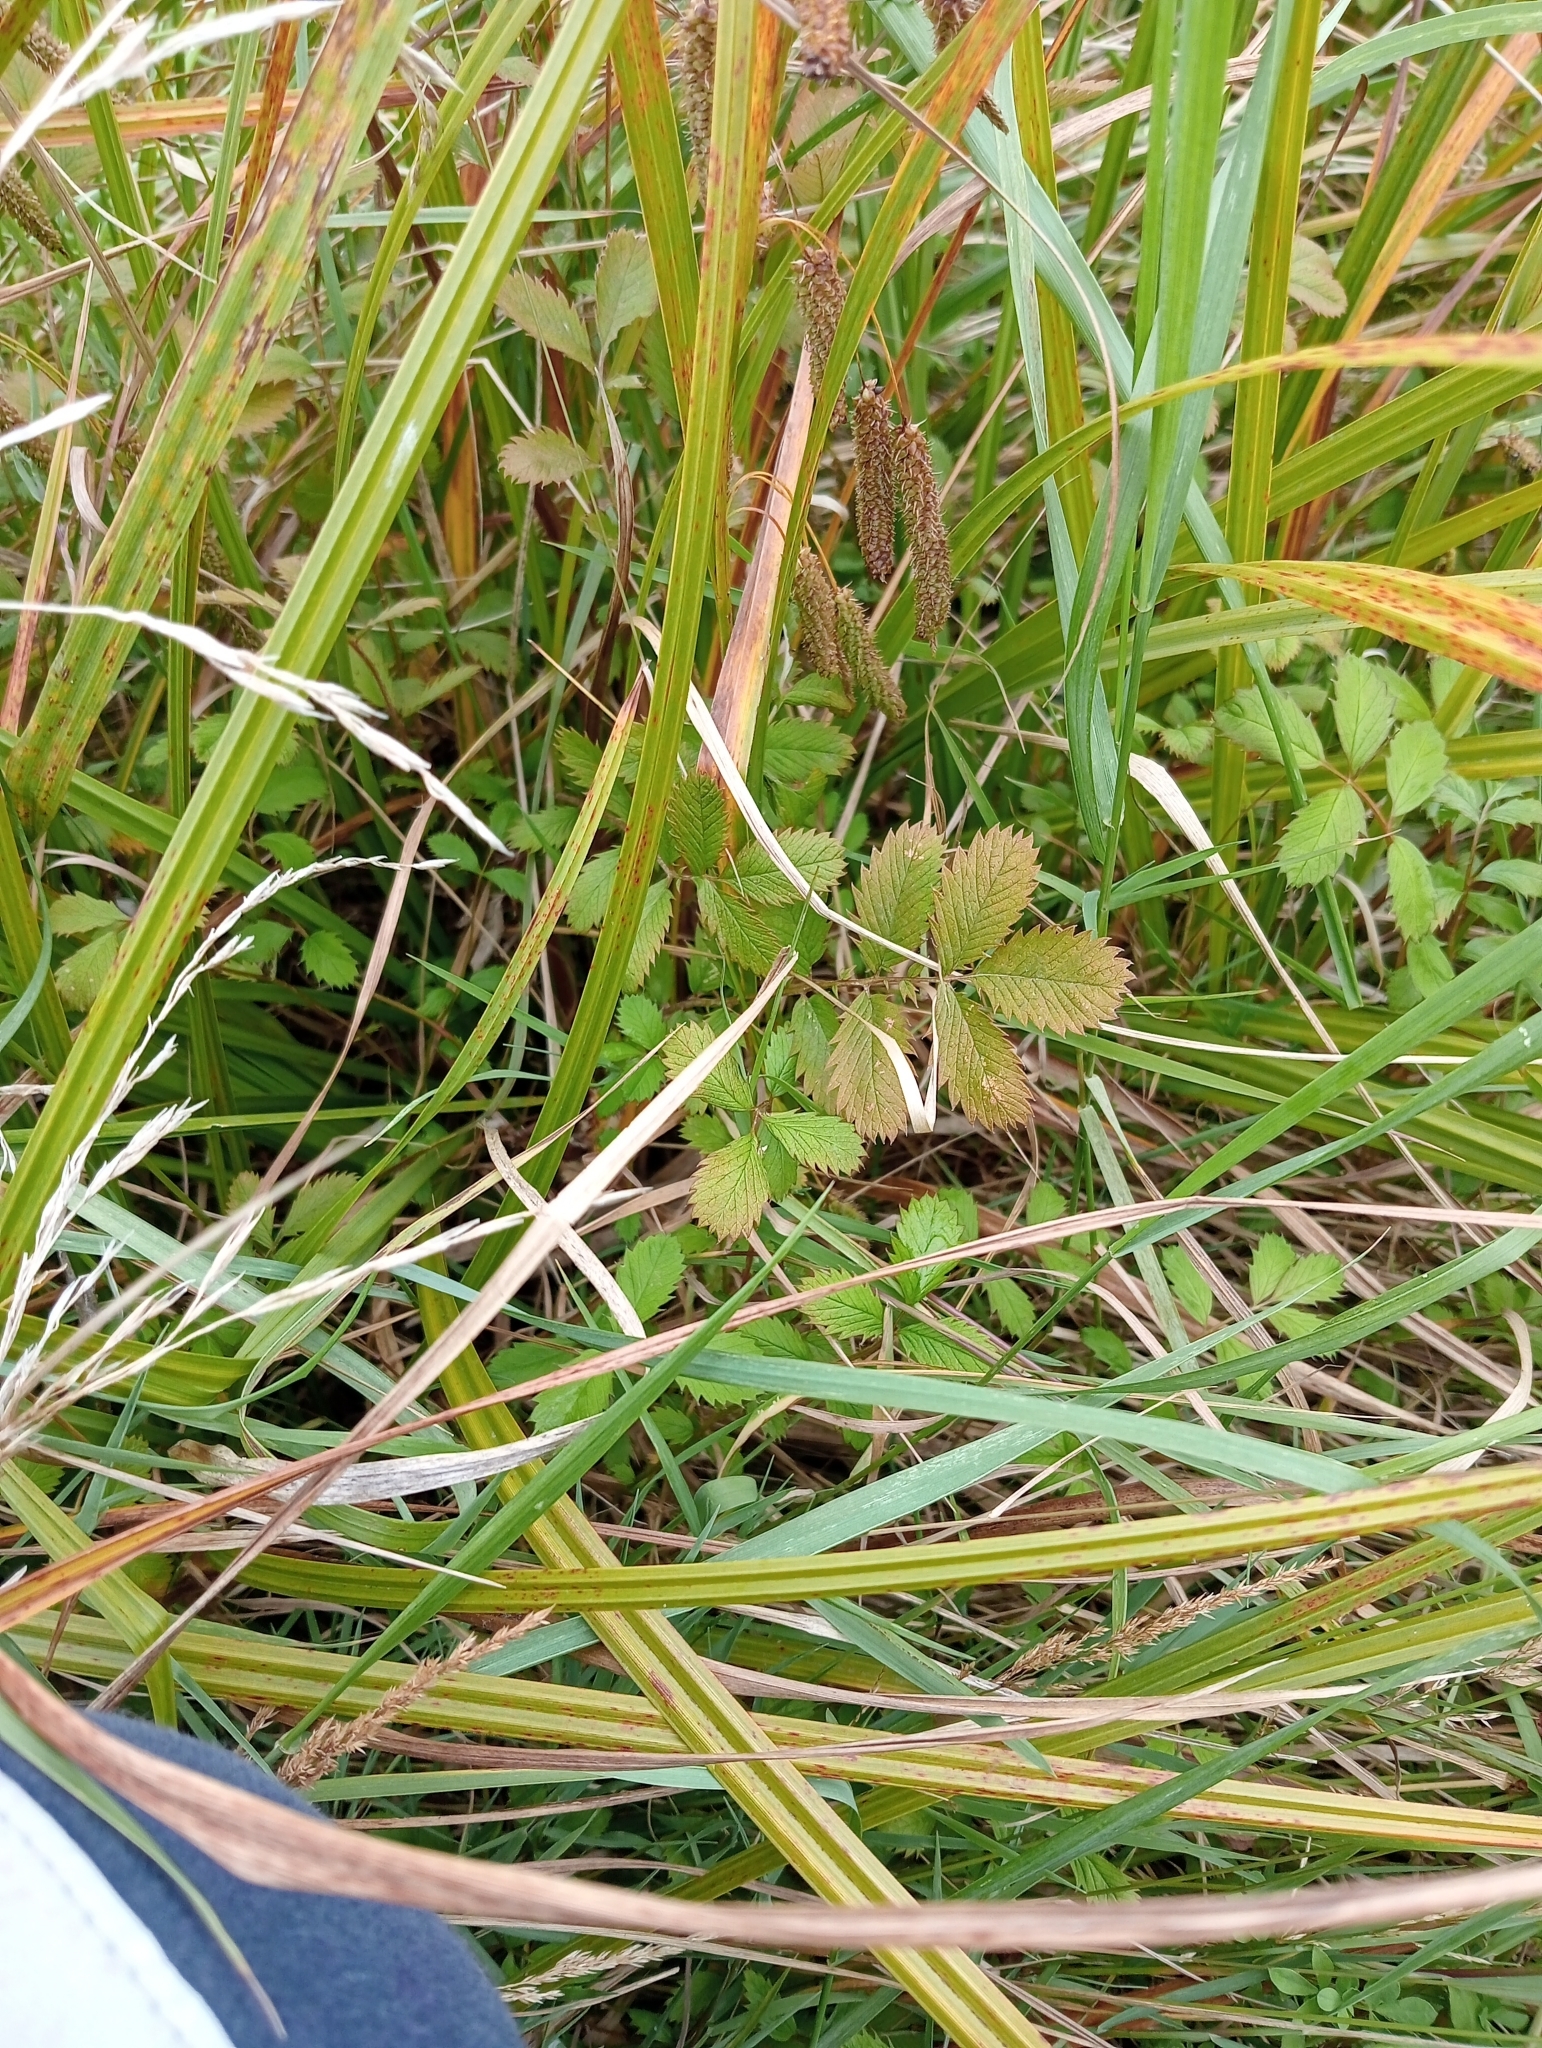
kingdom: Plantae
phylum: Tracheophyta
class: Magnoliopsida
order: Rosales
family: Rosaceae
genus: Argentina
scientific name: Argentina anserinoides
